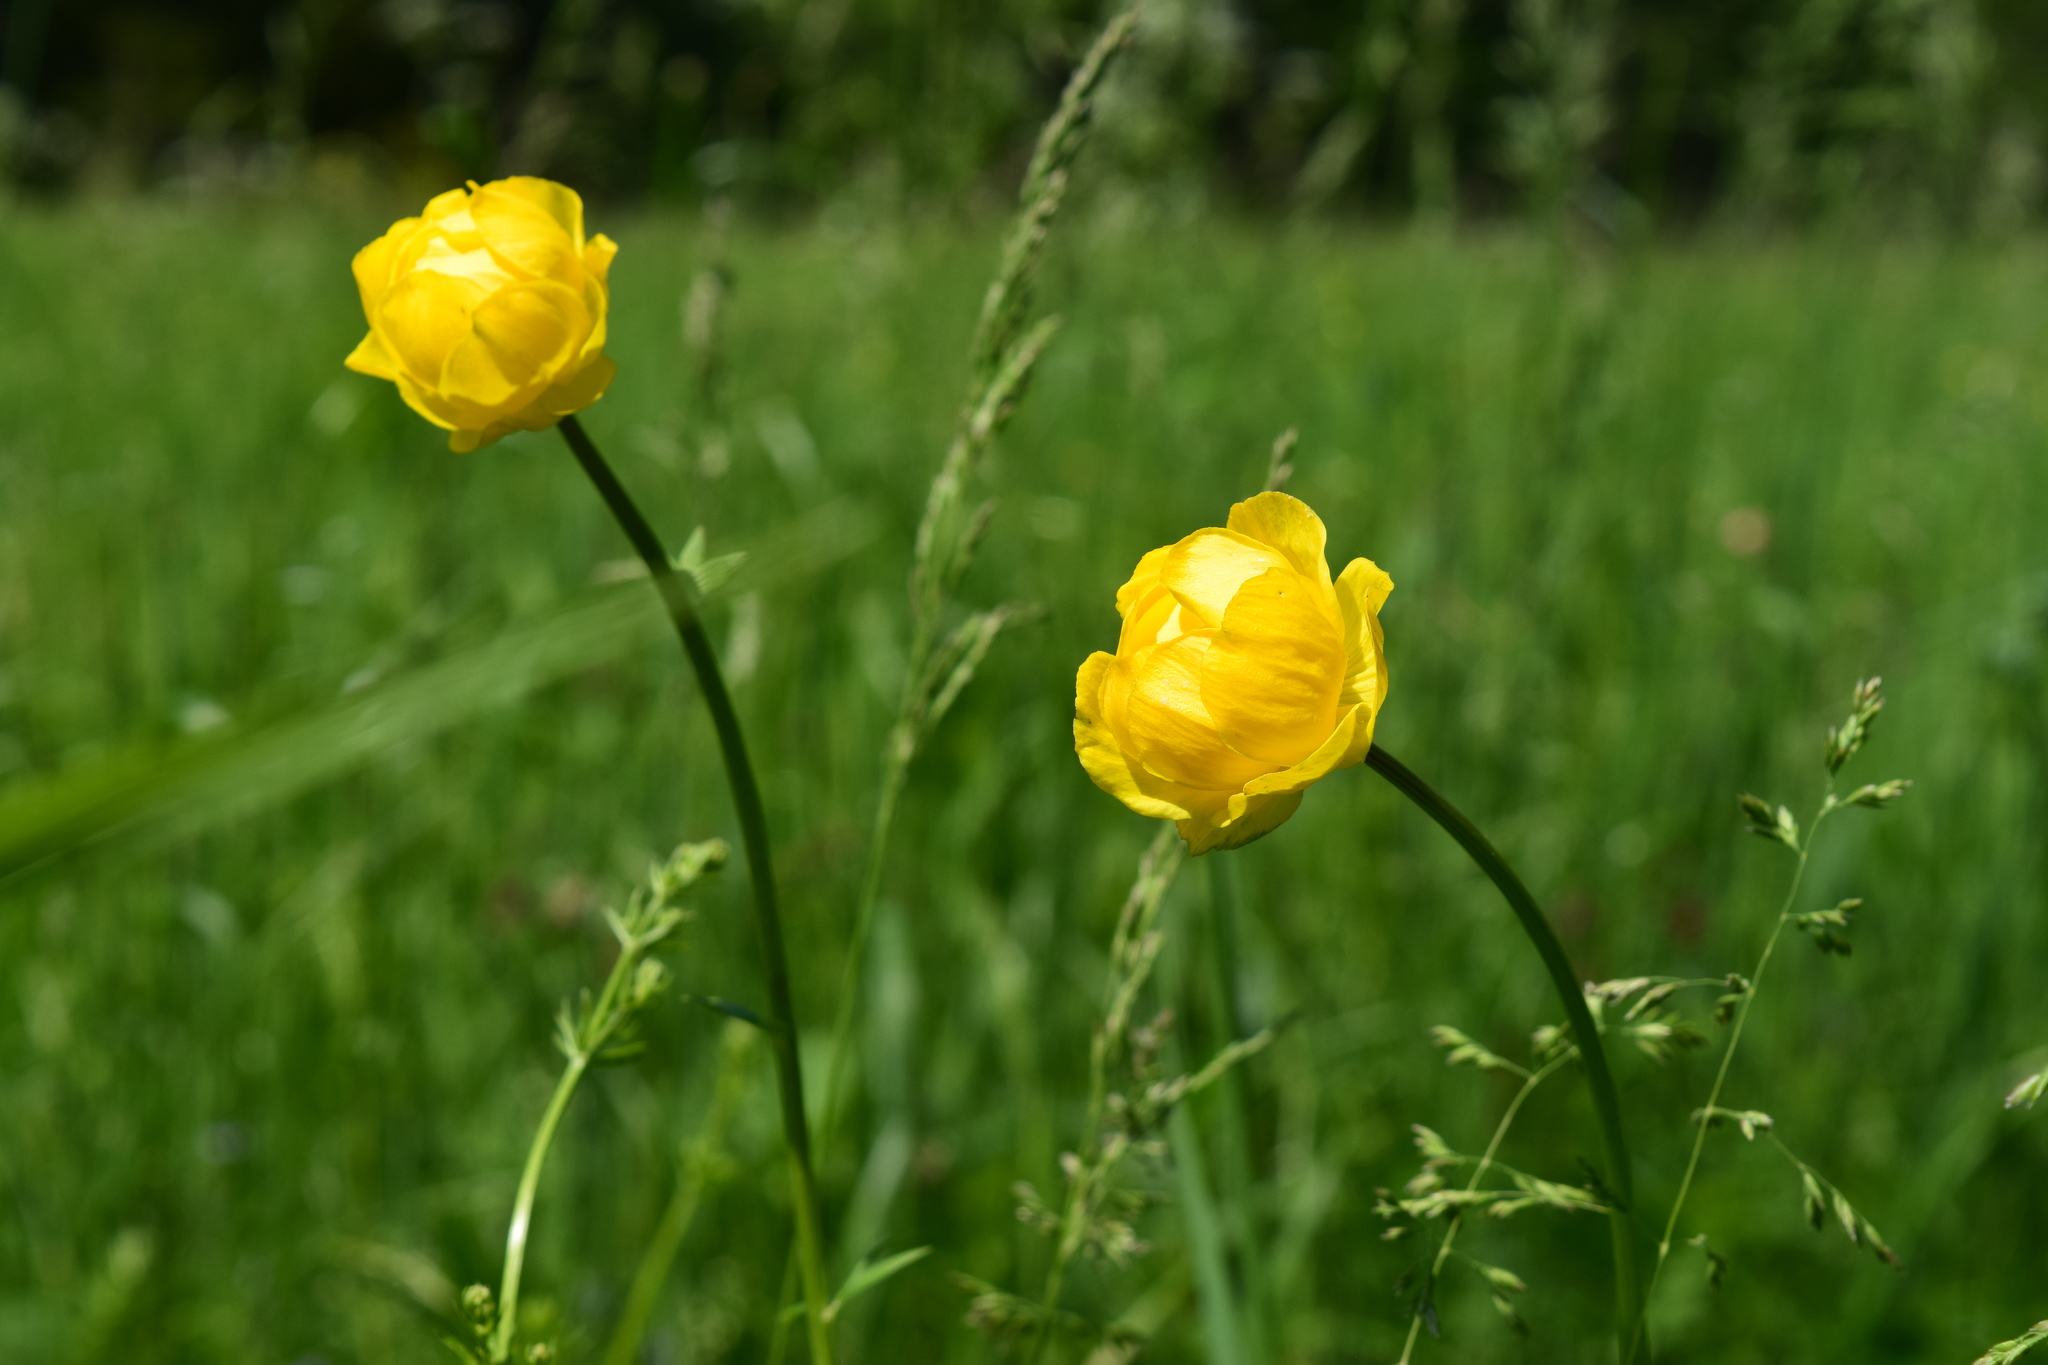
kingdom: Plantae
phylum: Tracheophyta
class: Magnoliopsida
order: Ranunculales
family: Ranunculaceae
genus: Trollius
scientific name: Trollius europaeus
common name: European globeflower
